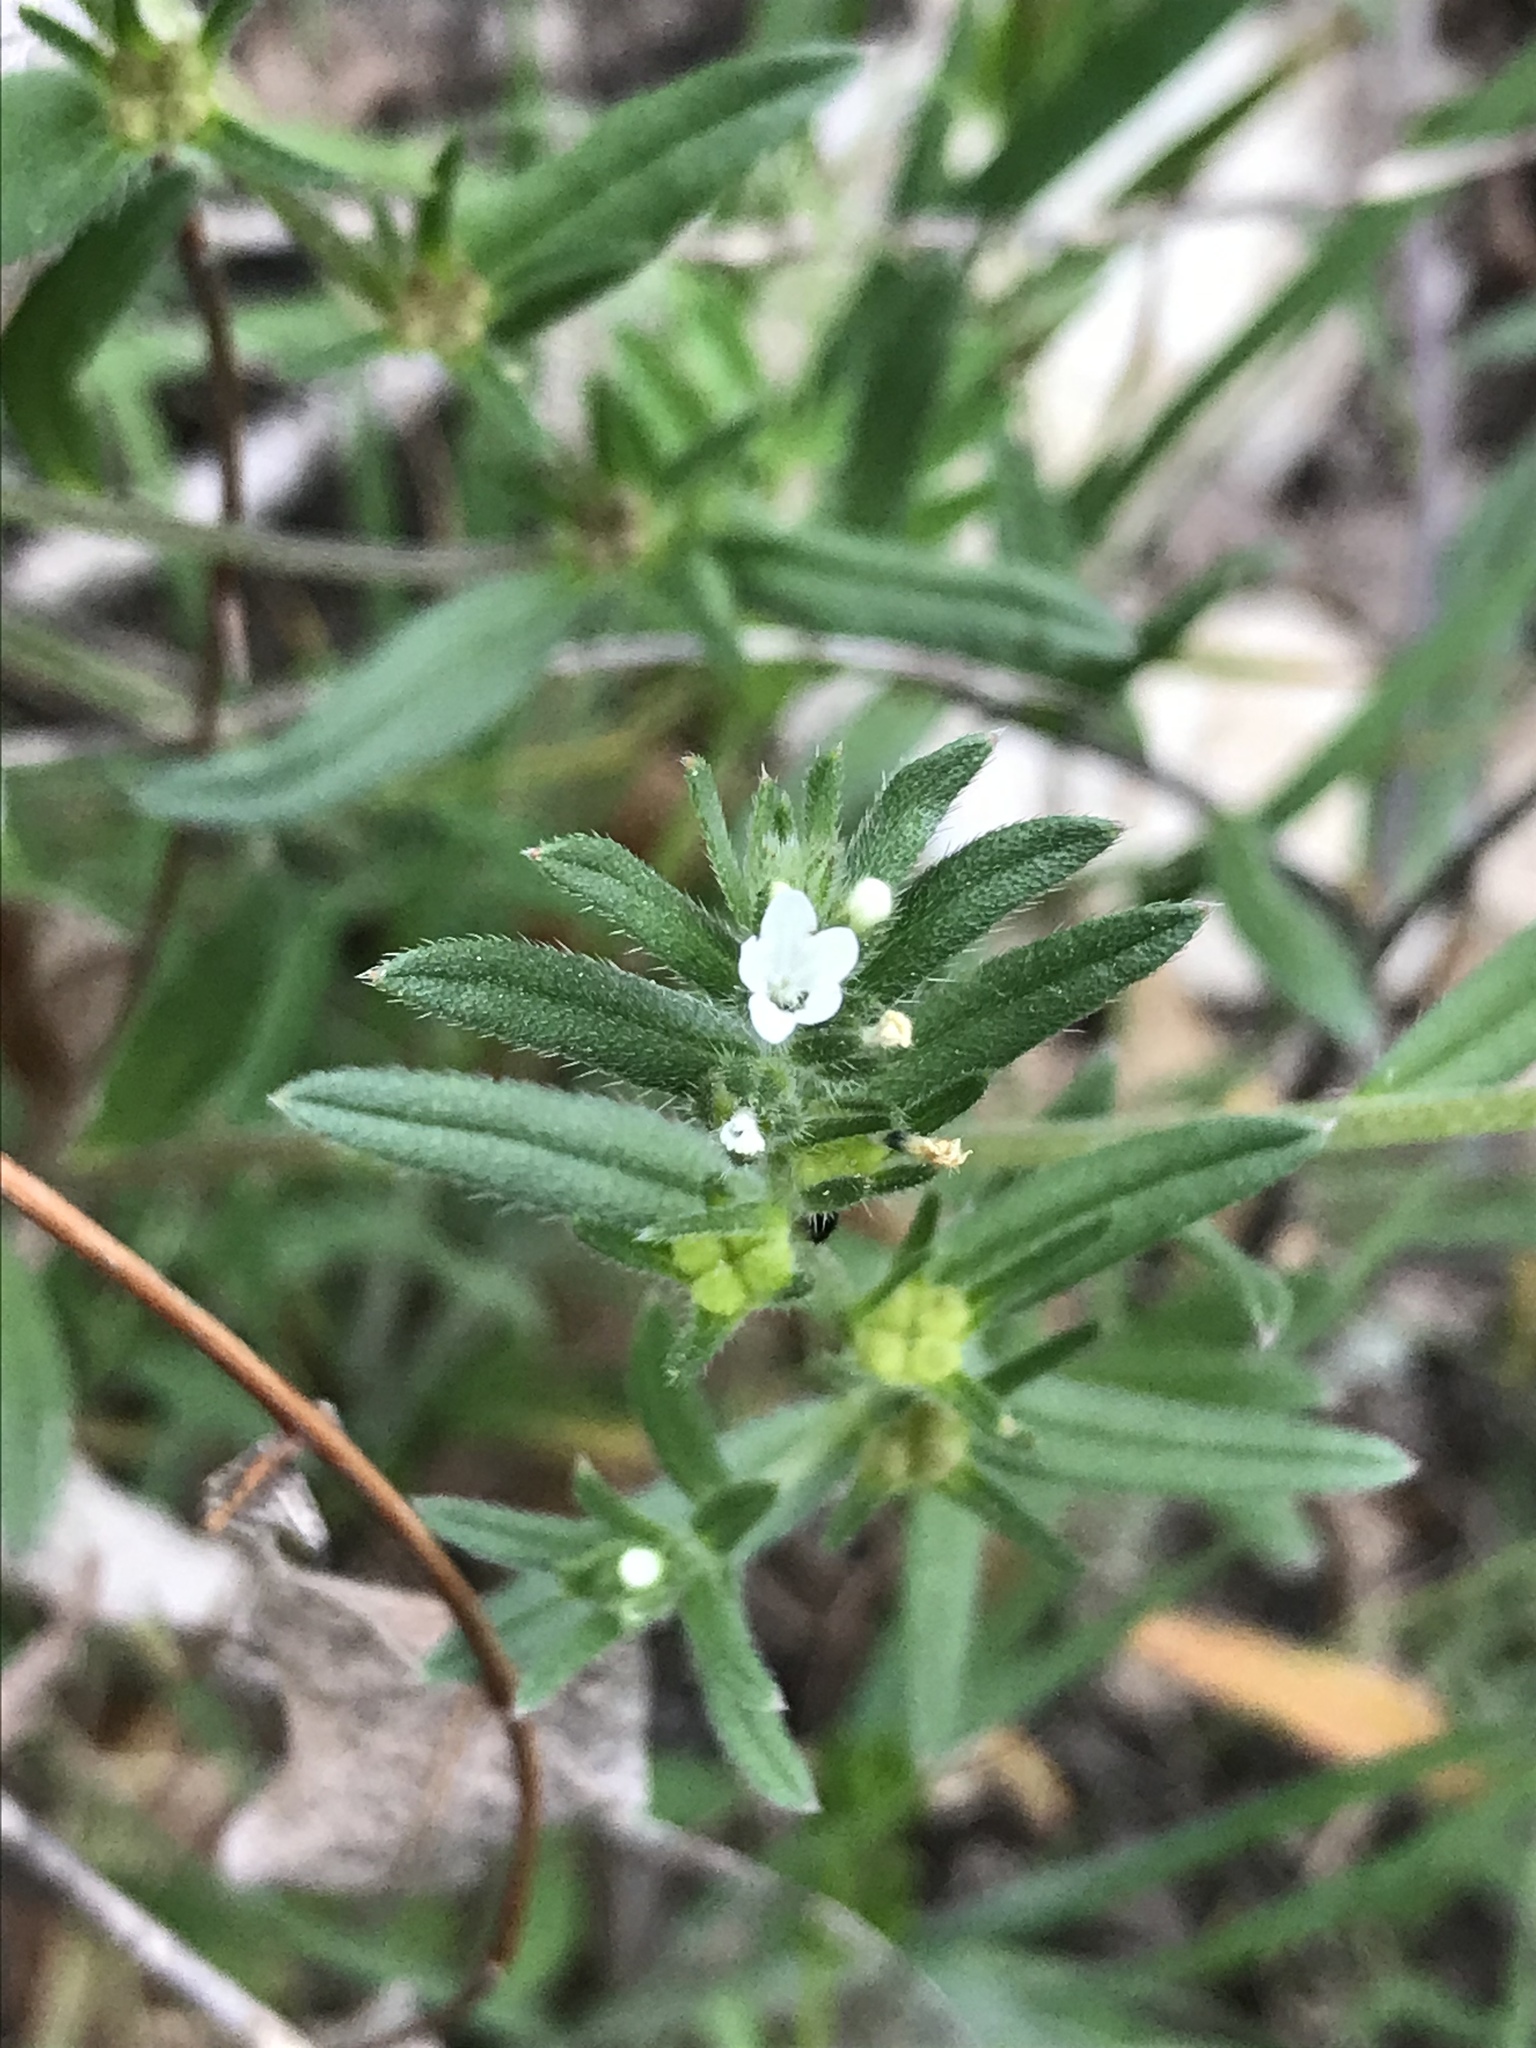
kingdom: Plantae
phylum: Tracheophyta
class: Magnoliopsida
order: Boraginales
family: Boraginaceae
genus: Buglossoides
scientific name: Buglossoides arvensis
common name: Corn gromwell
